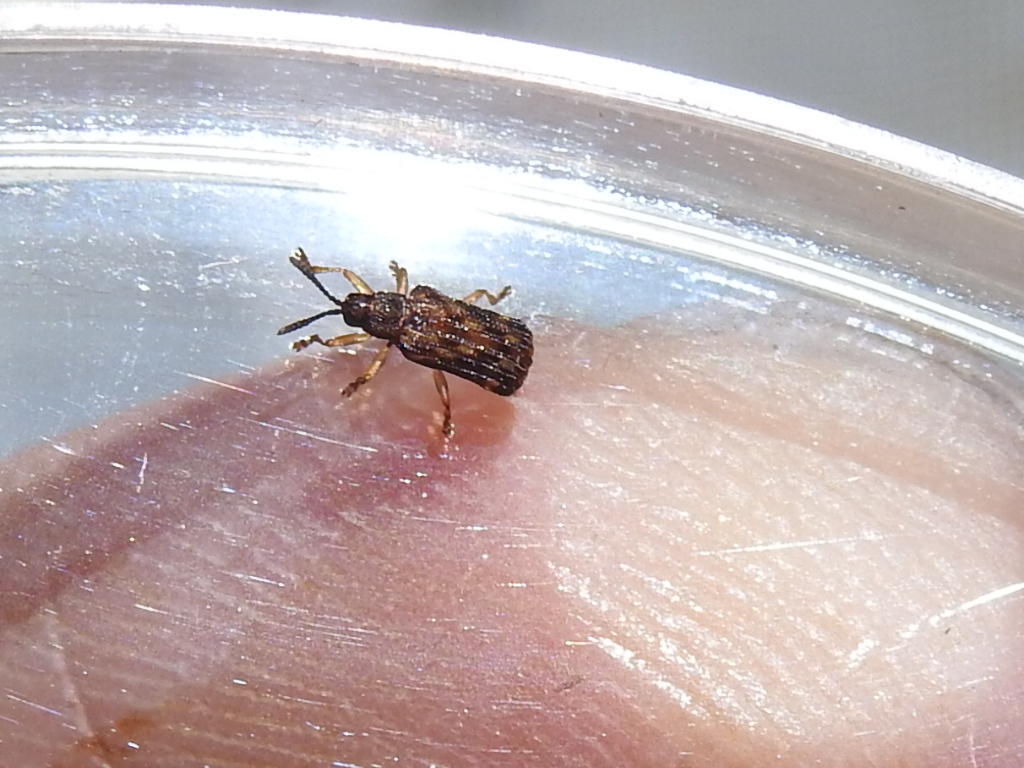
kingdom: Animalia
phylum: Arthropoda
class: Insecta
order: Coleoptera
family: Chrysomelidae
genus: Sumitrosis
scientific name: Sumitrosis inaequalis
